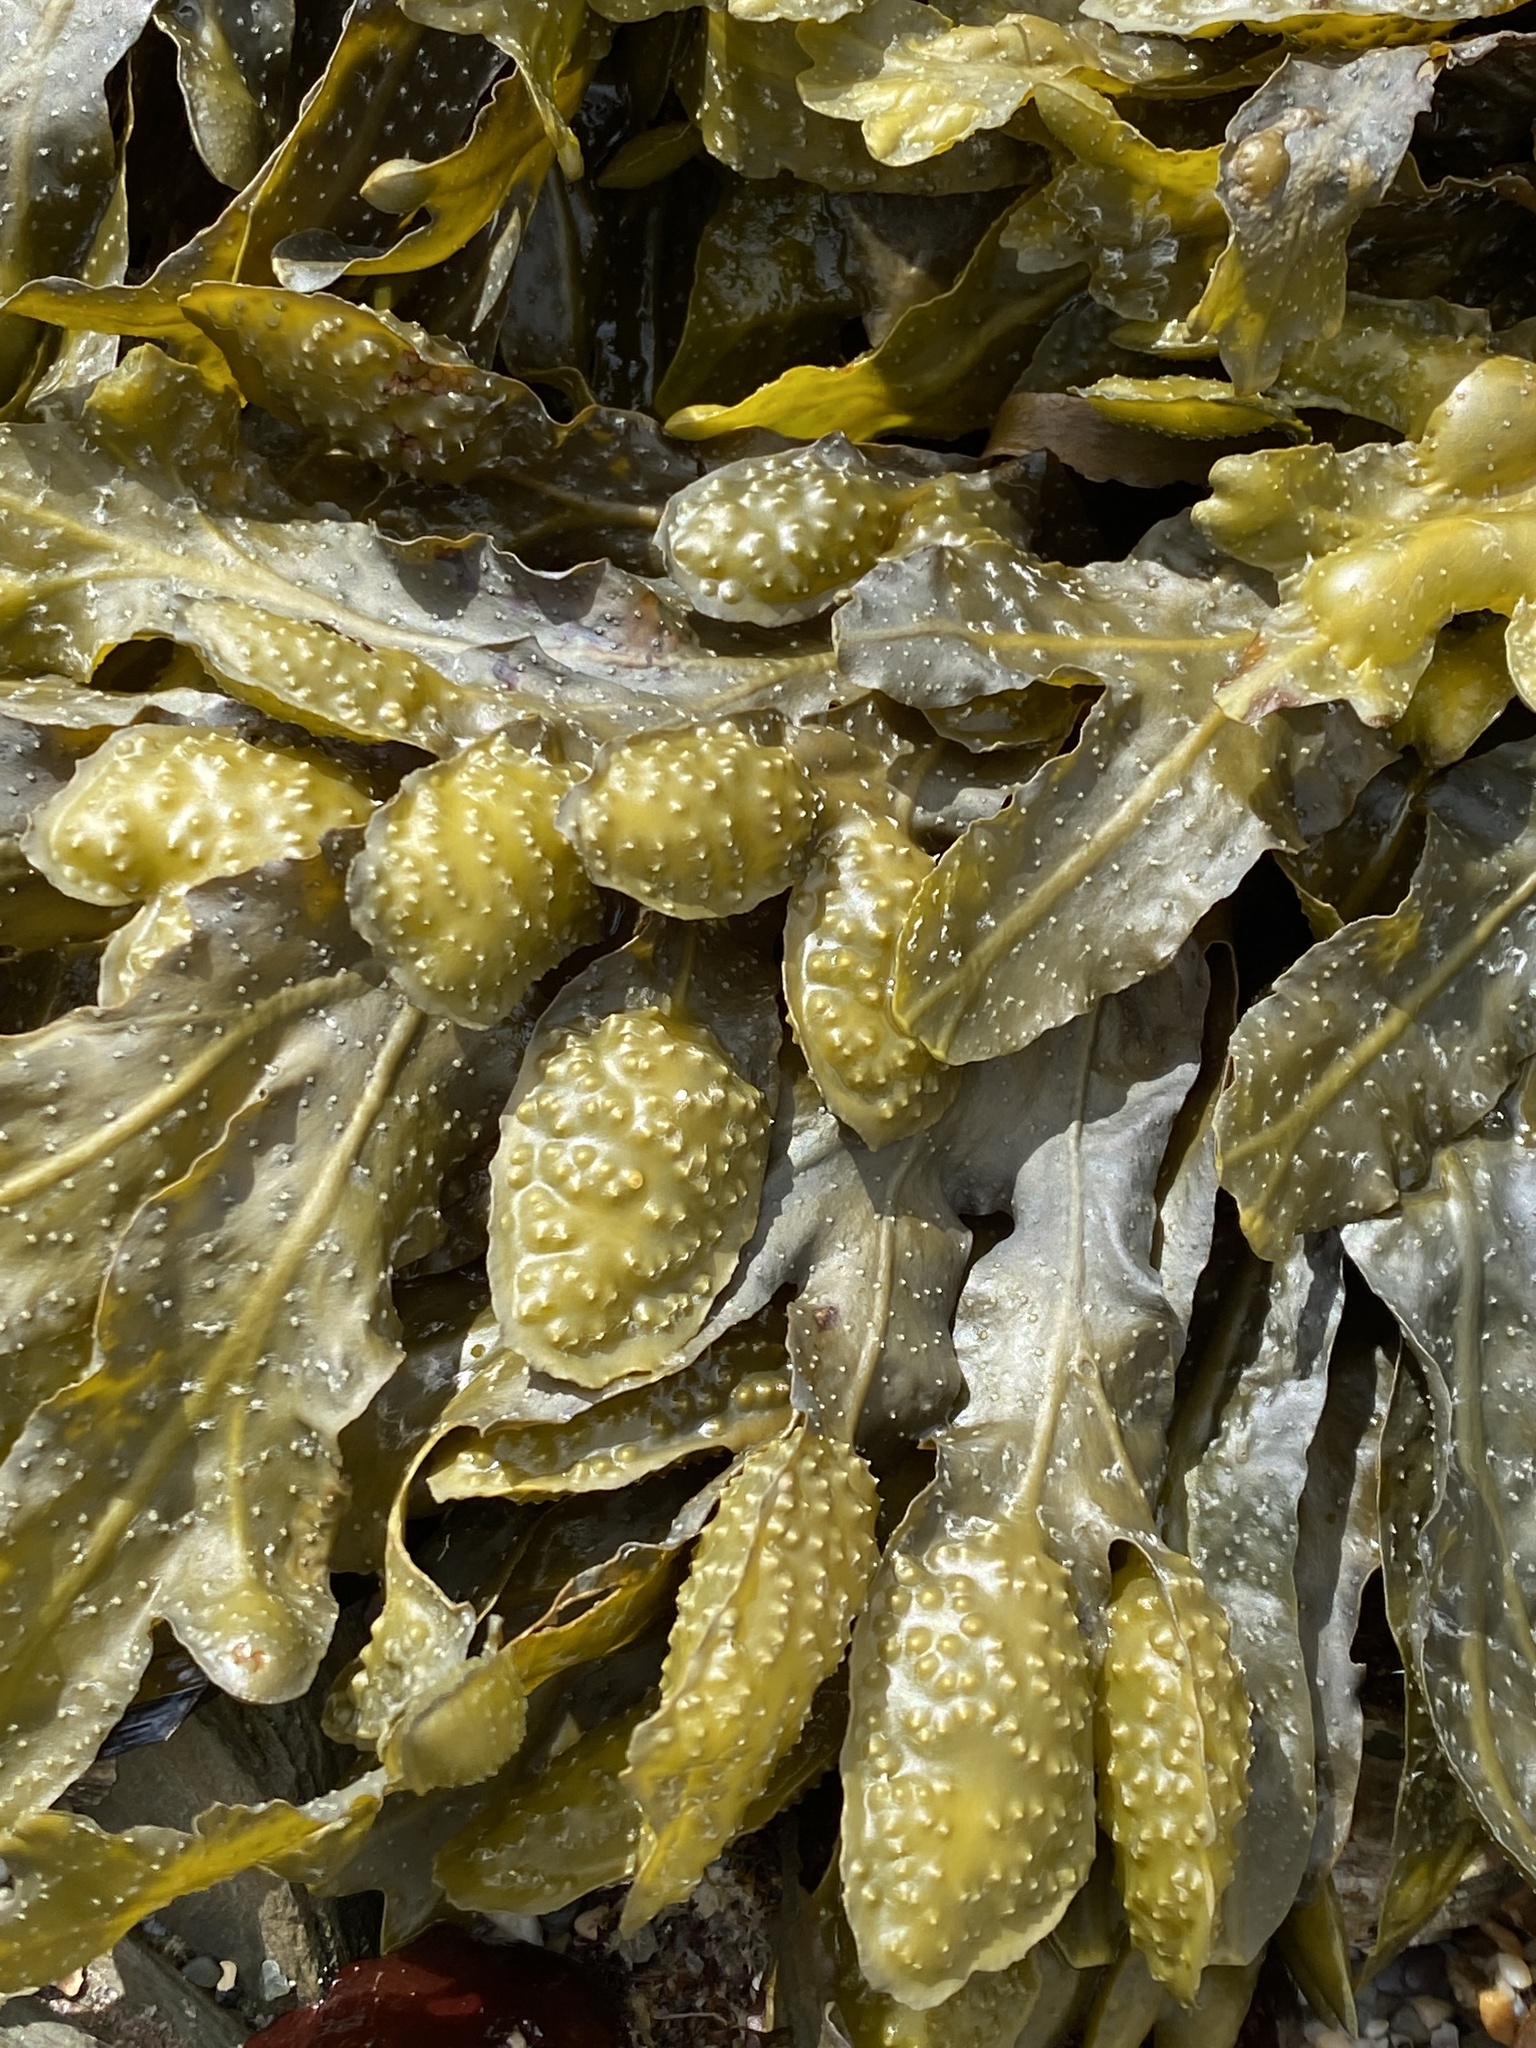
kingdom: Chromista
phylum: Ochrophyta
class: Phaeophyceae
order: Fucales
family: Fucaceae
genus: Fucus
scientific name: Fucus vesiculosus
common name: Bladder wrack
